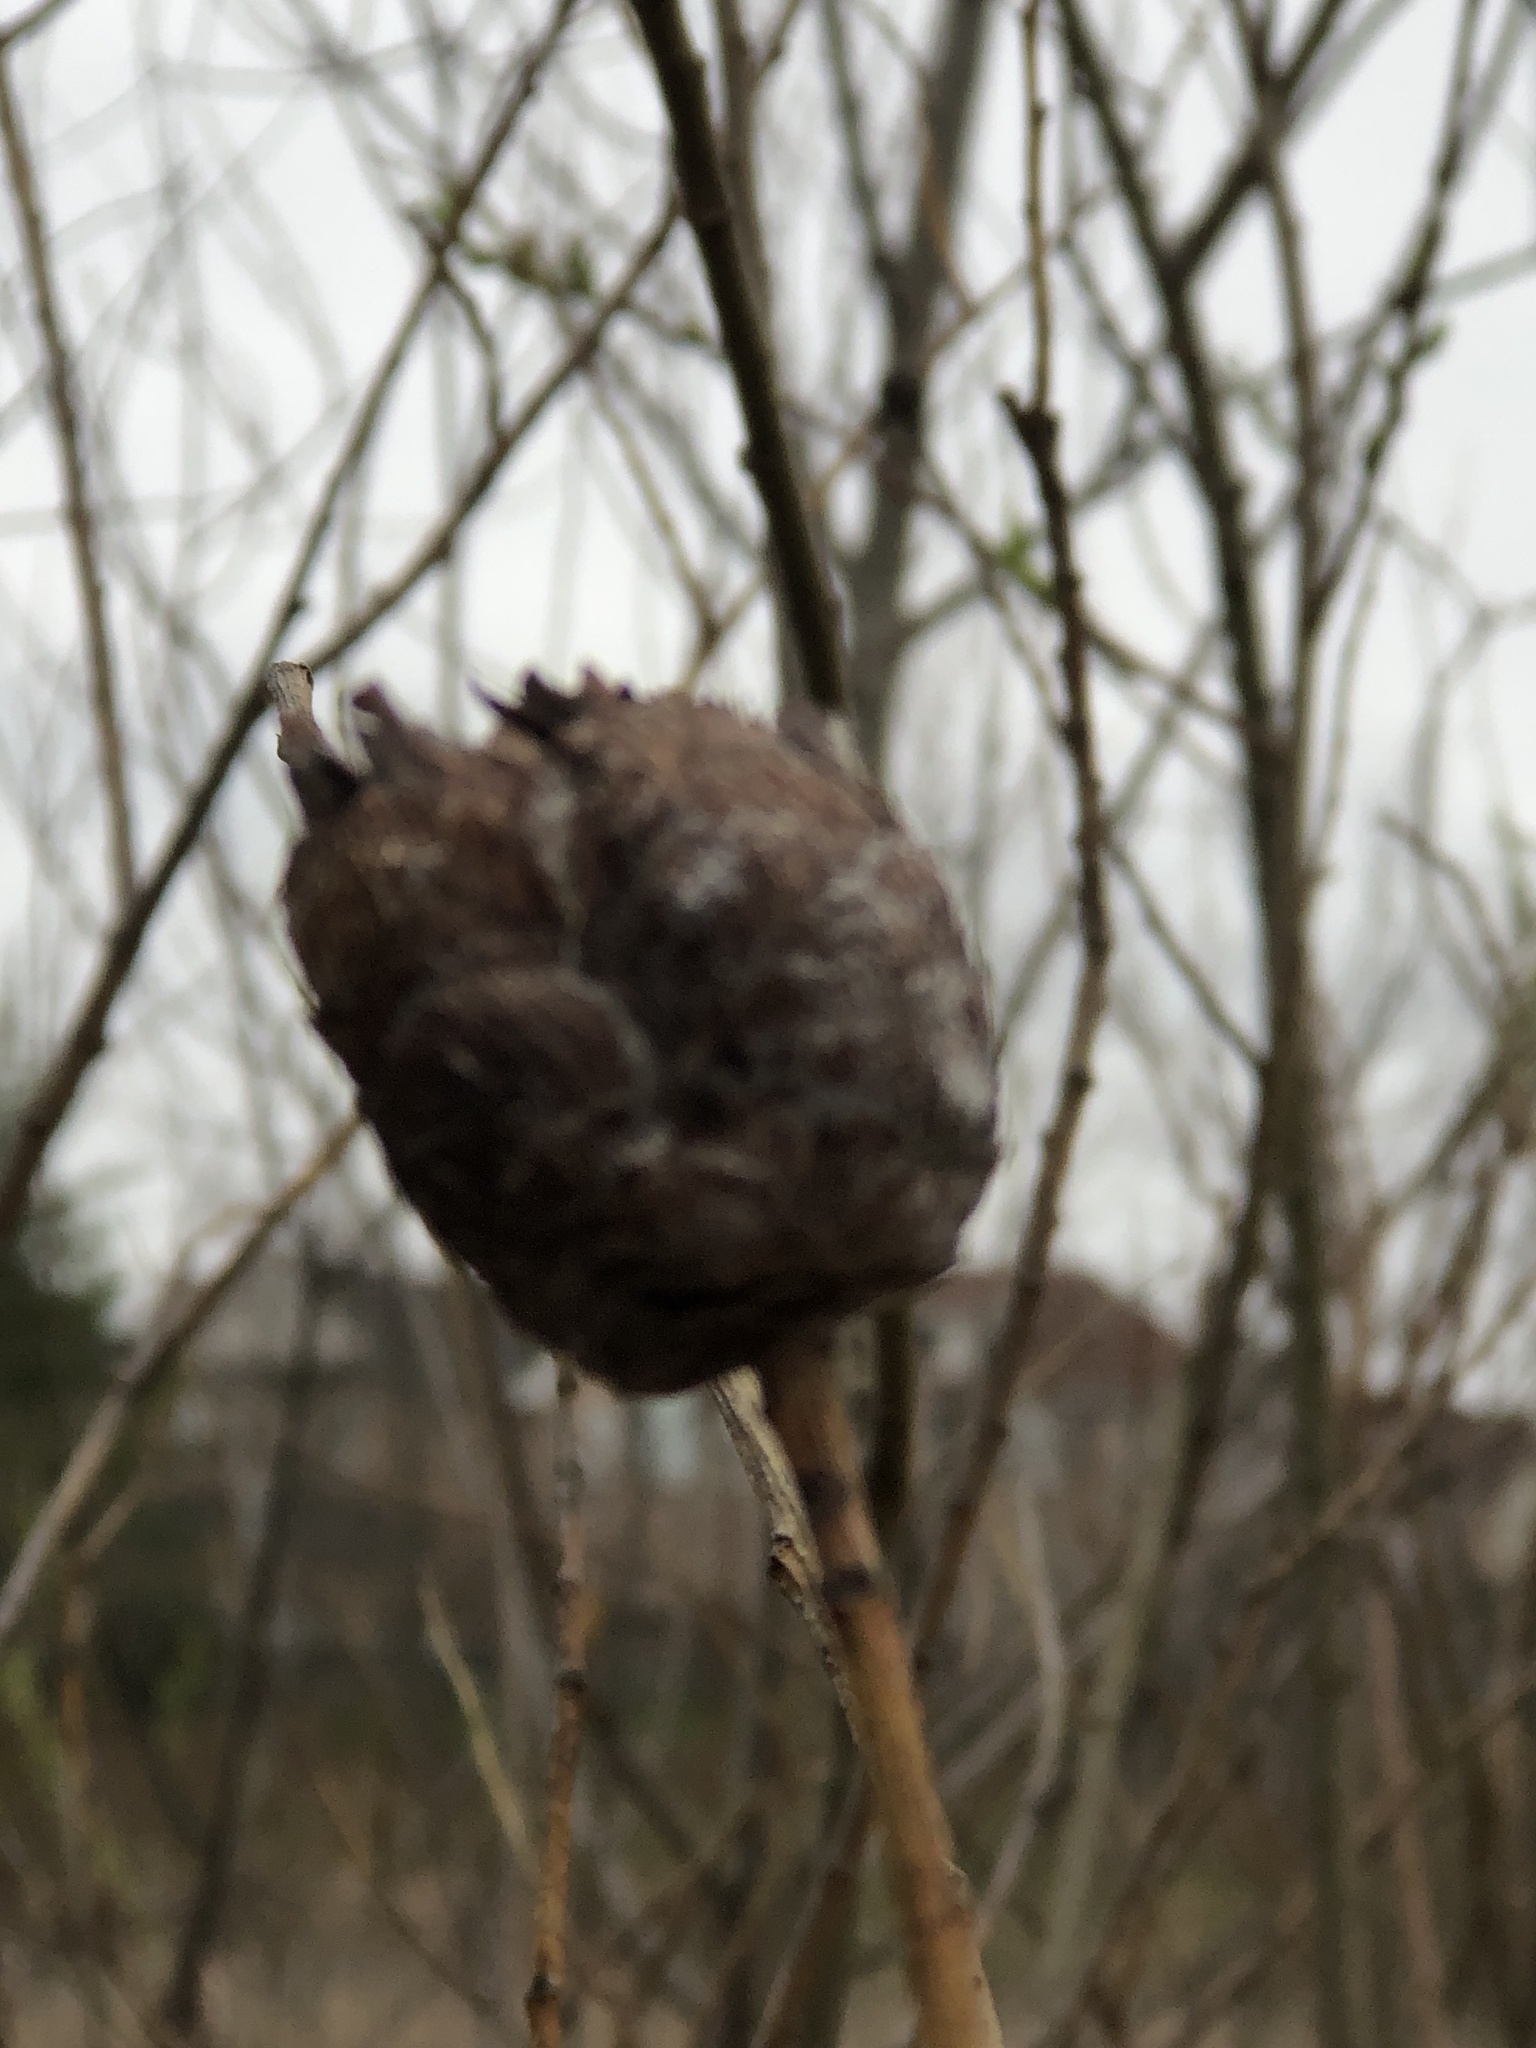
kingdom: Animalia
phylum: Arthropoda
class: Insecta
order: Diptera
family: Cecidomyiidae
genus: Rabdophaga
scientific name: Rabdophaga strobiloides
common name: Willow pinecone gall midge
